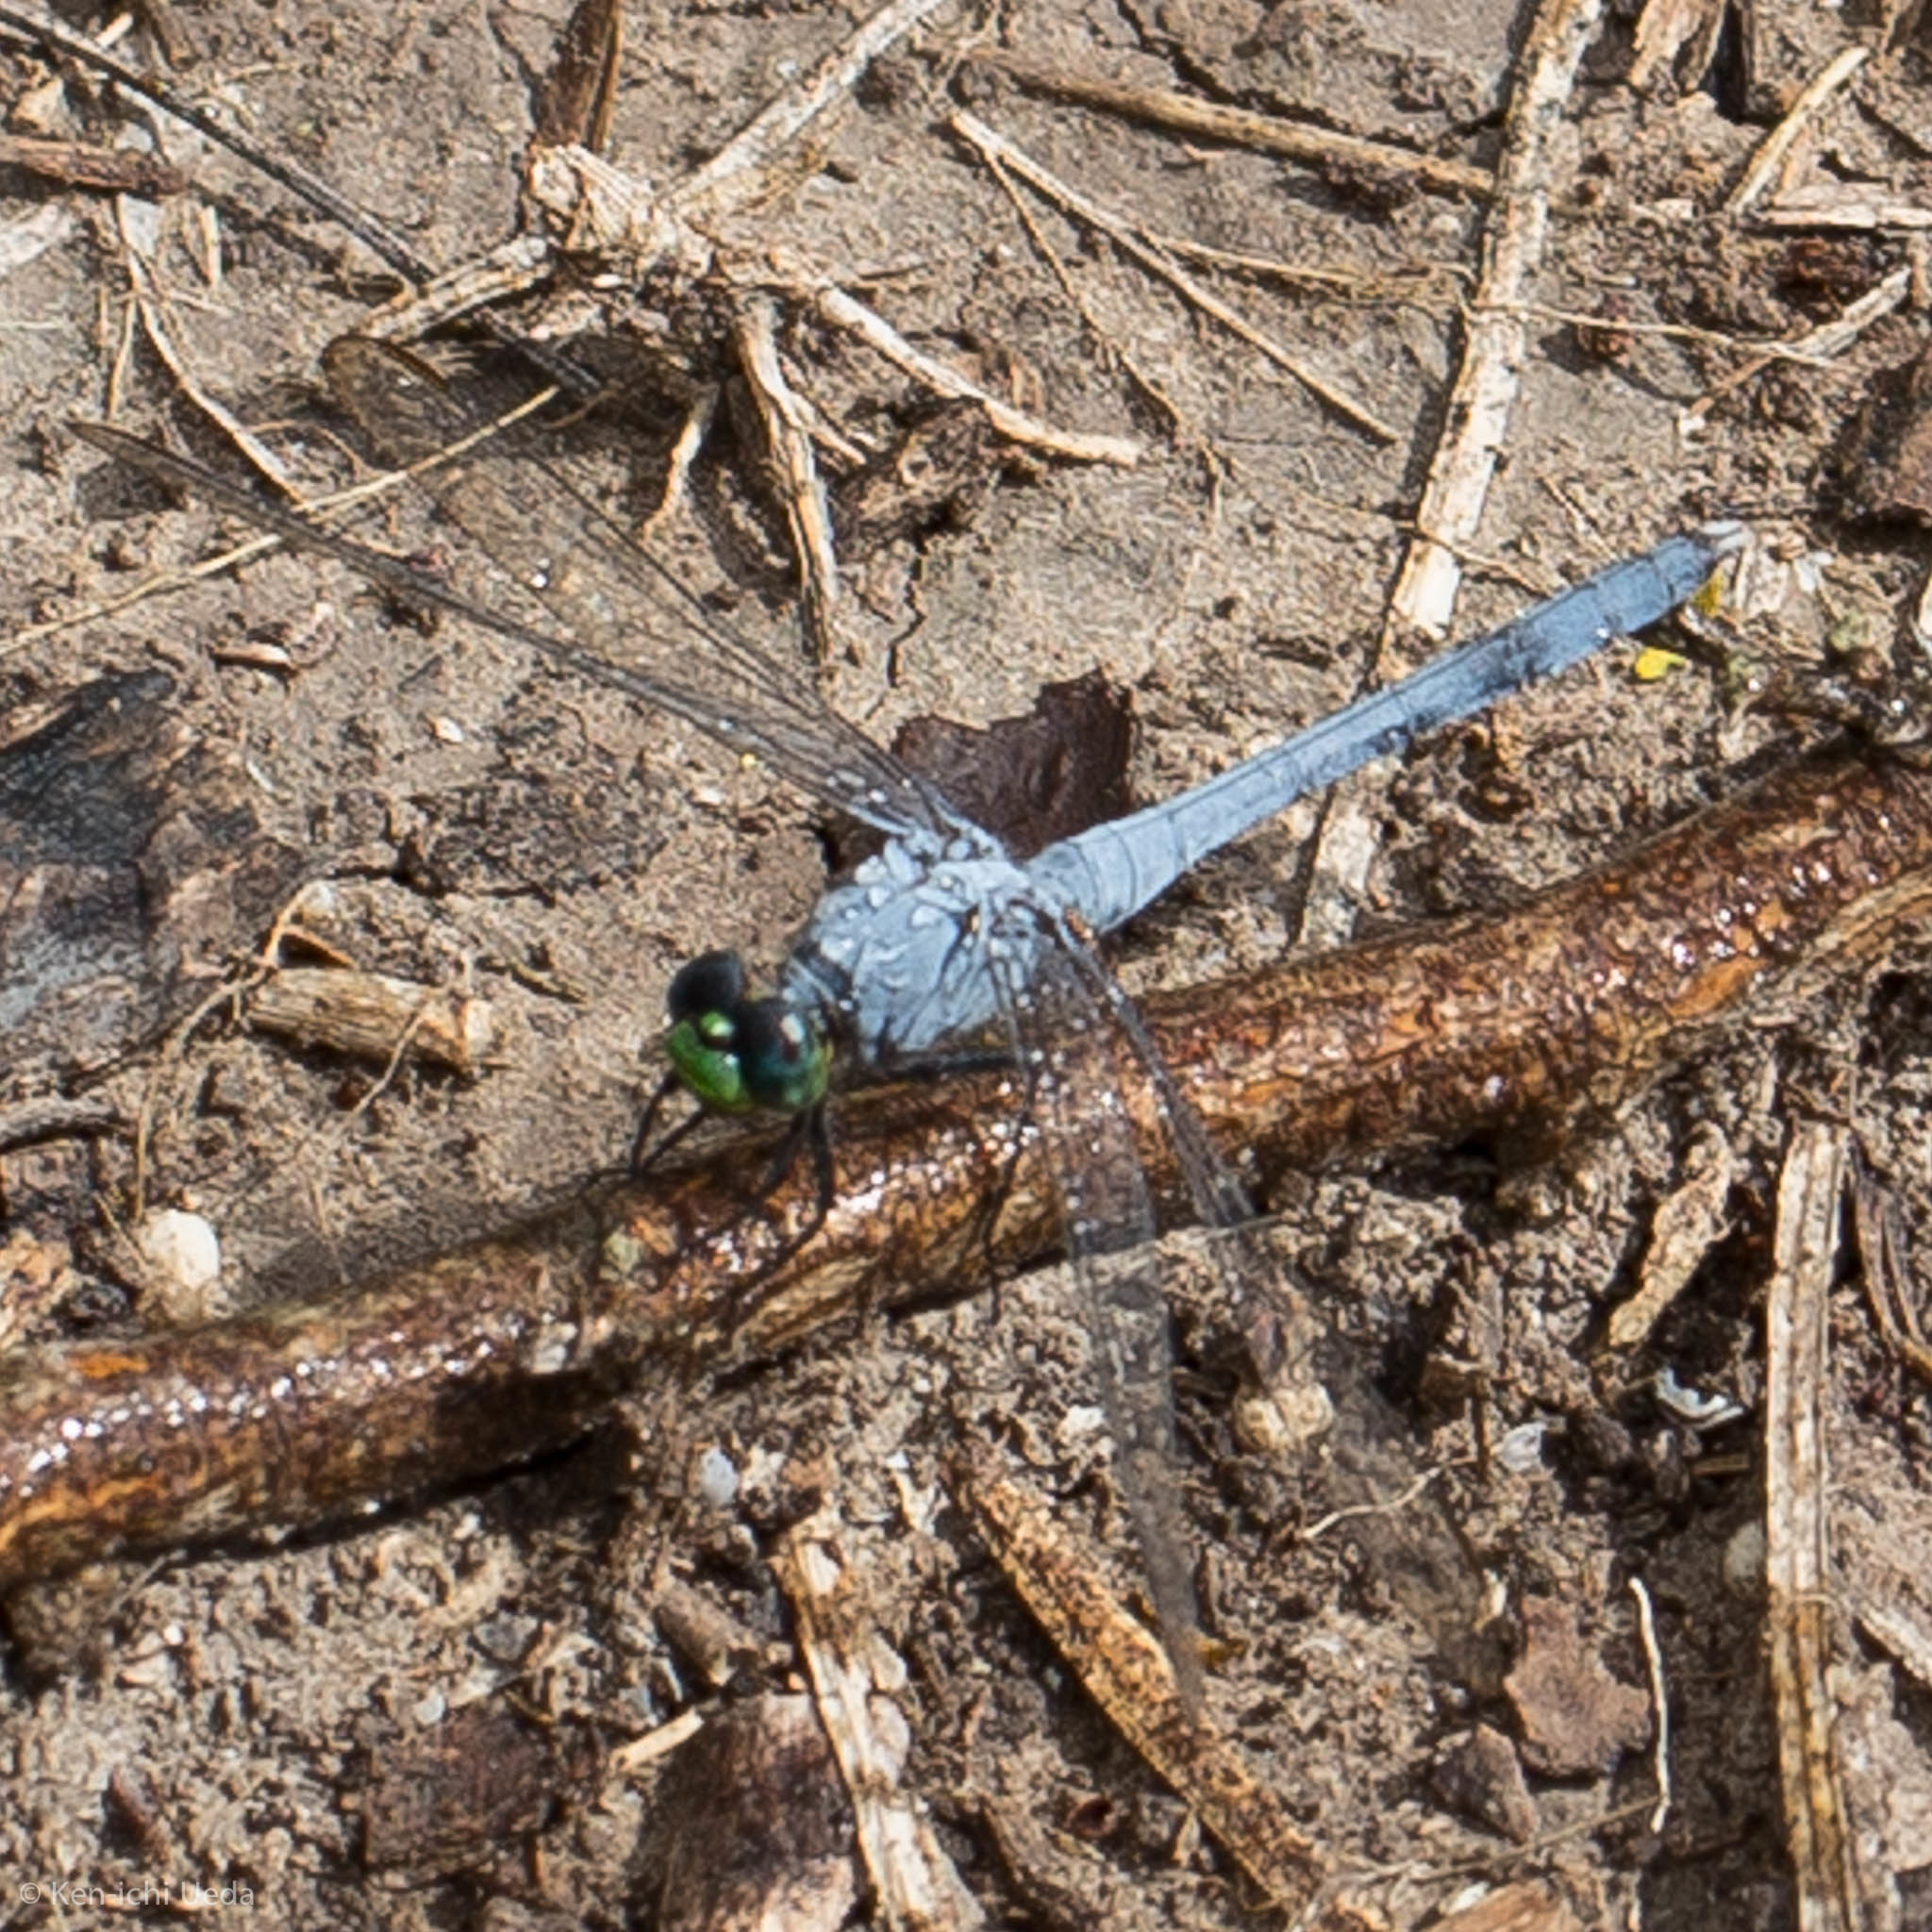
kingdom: Animalia
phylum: Arthropoda
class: Insecta
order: Odonata
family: Libellulidae
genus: Erythemis
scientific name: Erythemis simplicicollis
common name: Eastern pondhawk
